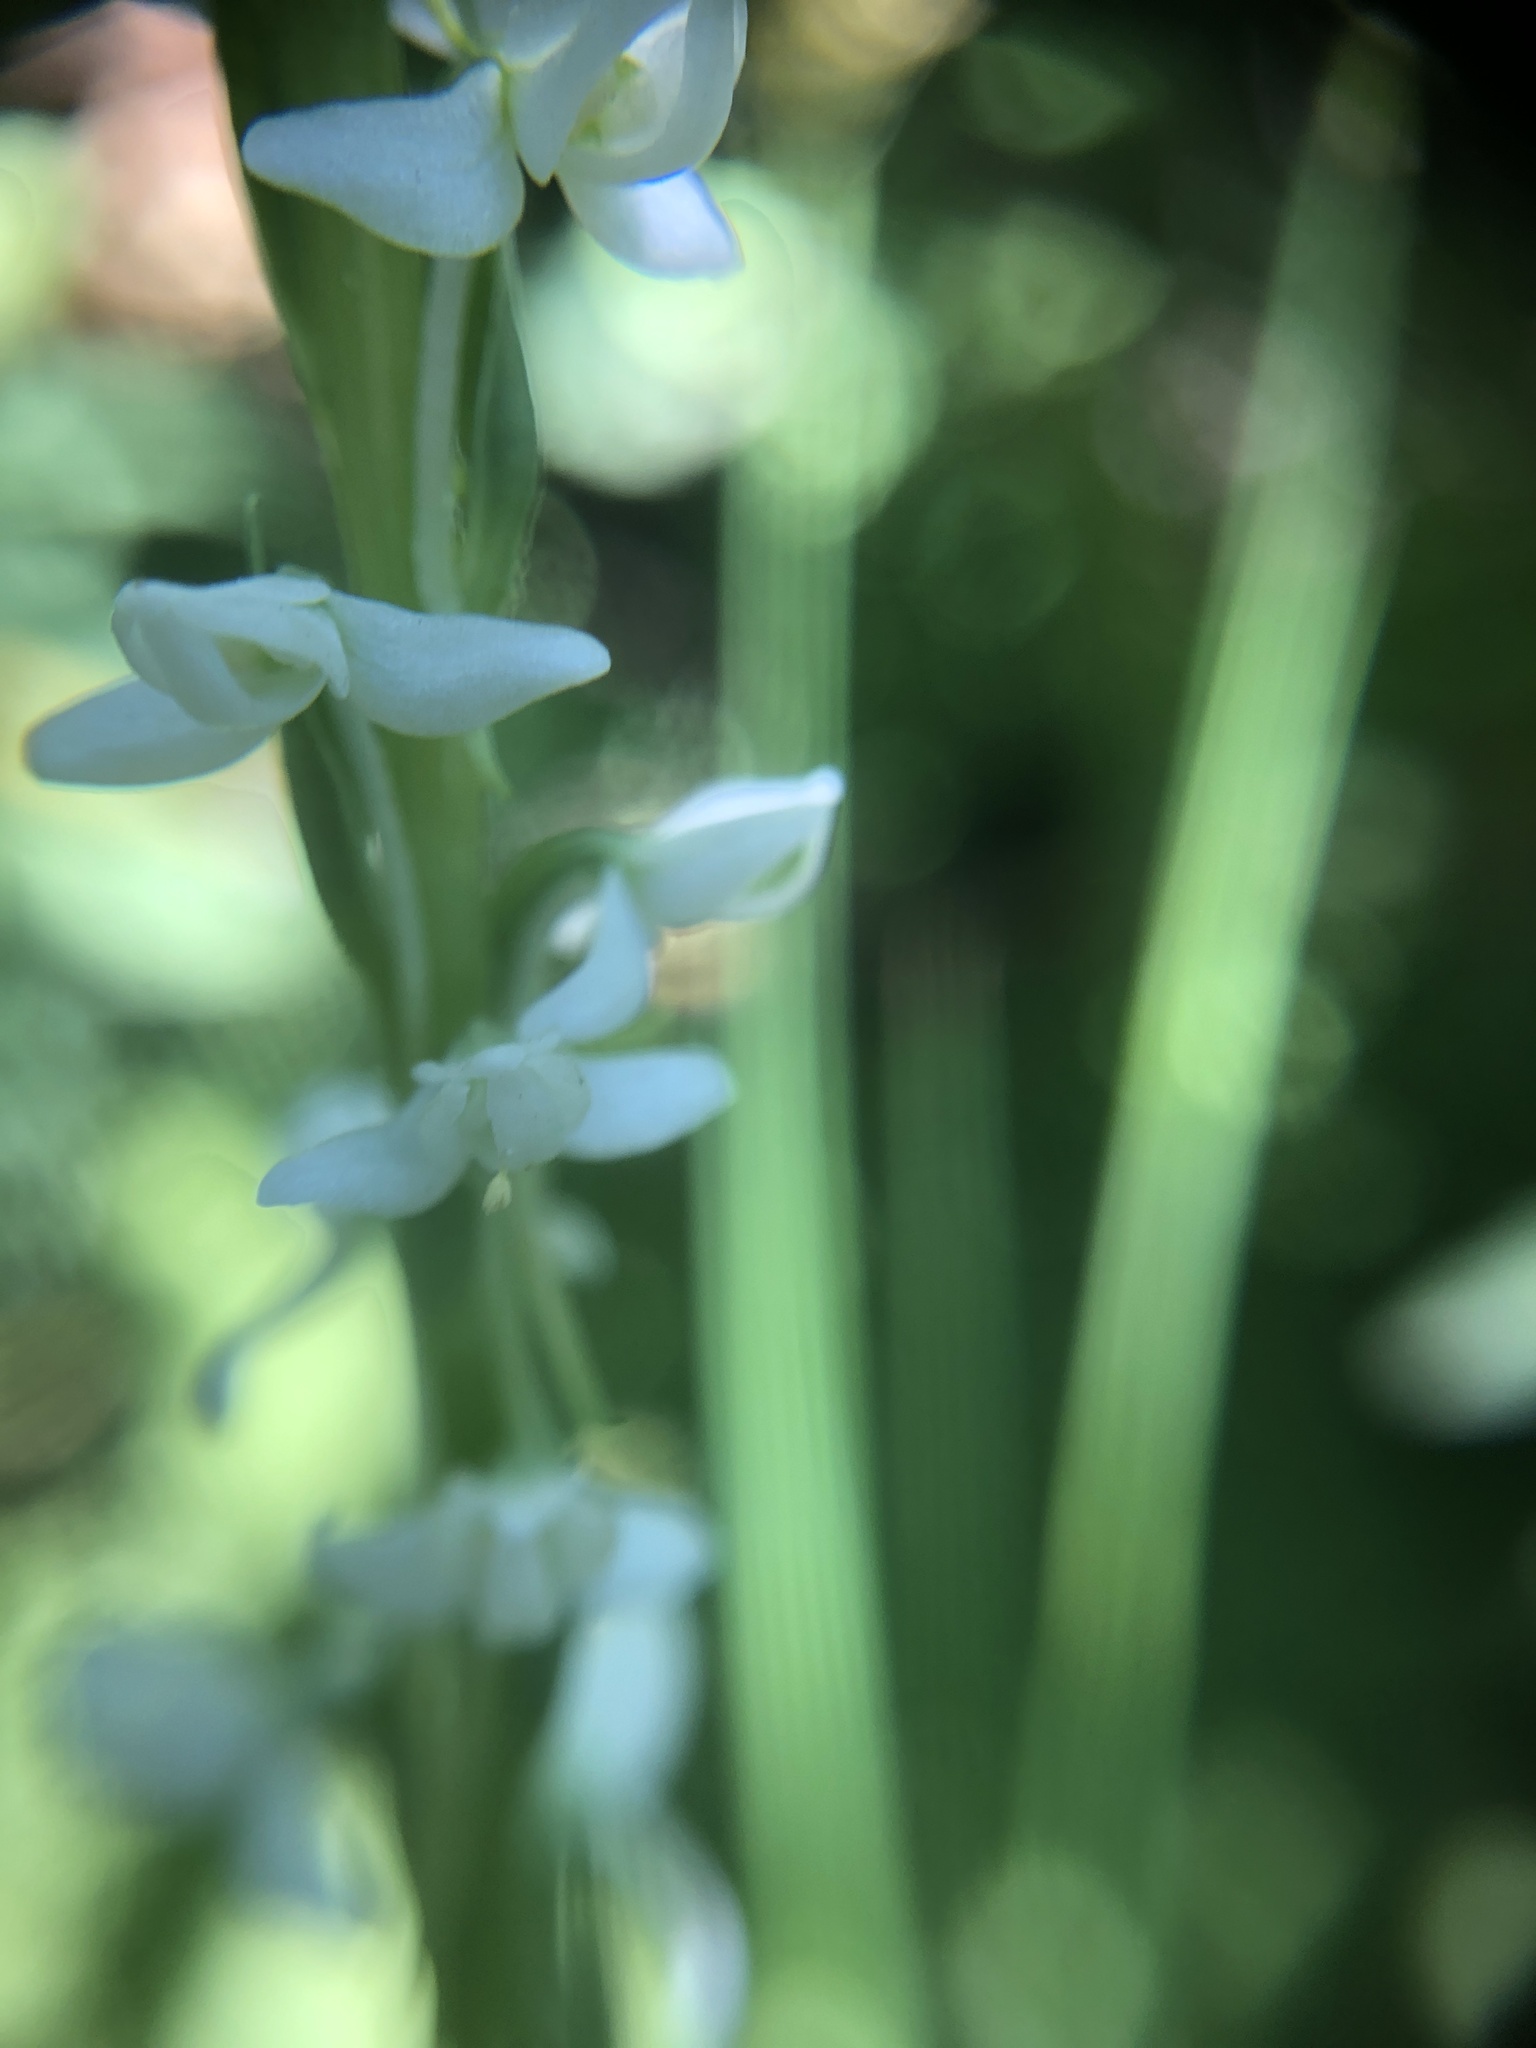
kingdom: Plantae
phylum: Tracheophyta
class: Liliopsida
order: Asparagales
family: Orchidaceae
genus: Platanthera
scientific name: Platanthera dilatata
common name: Bog candles
